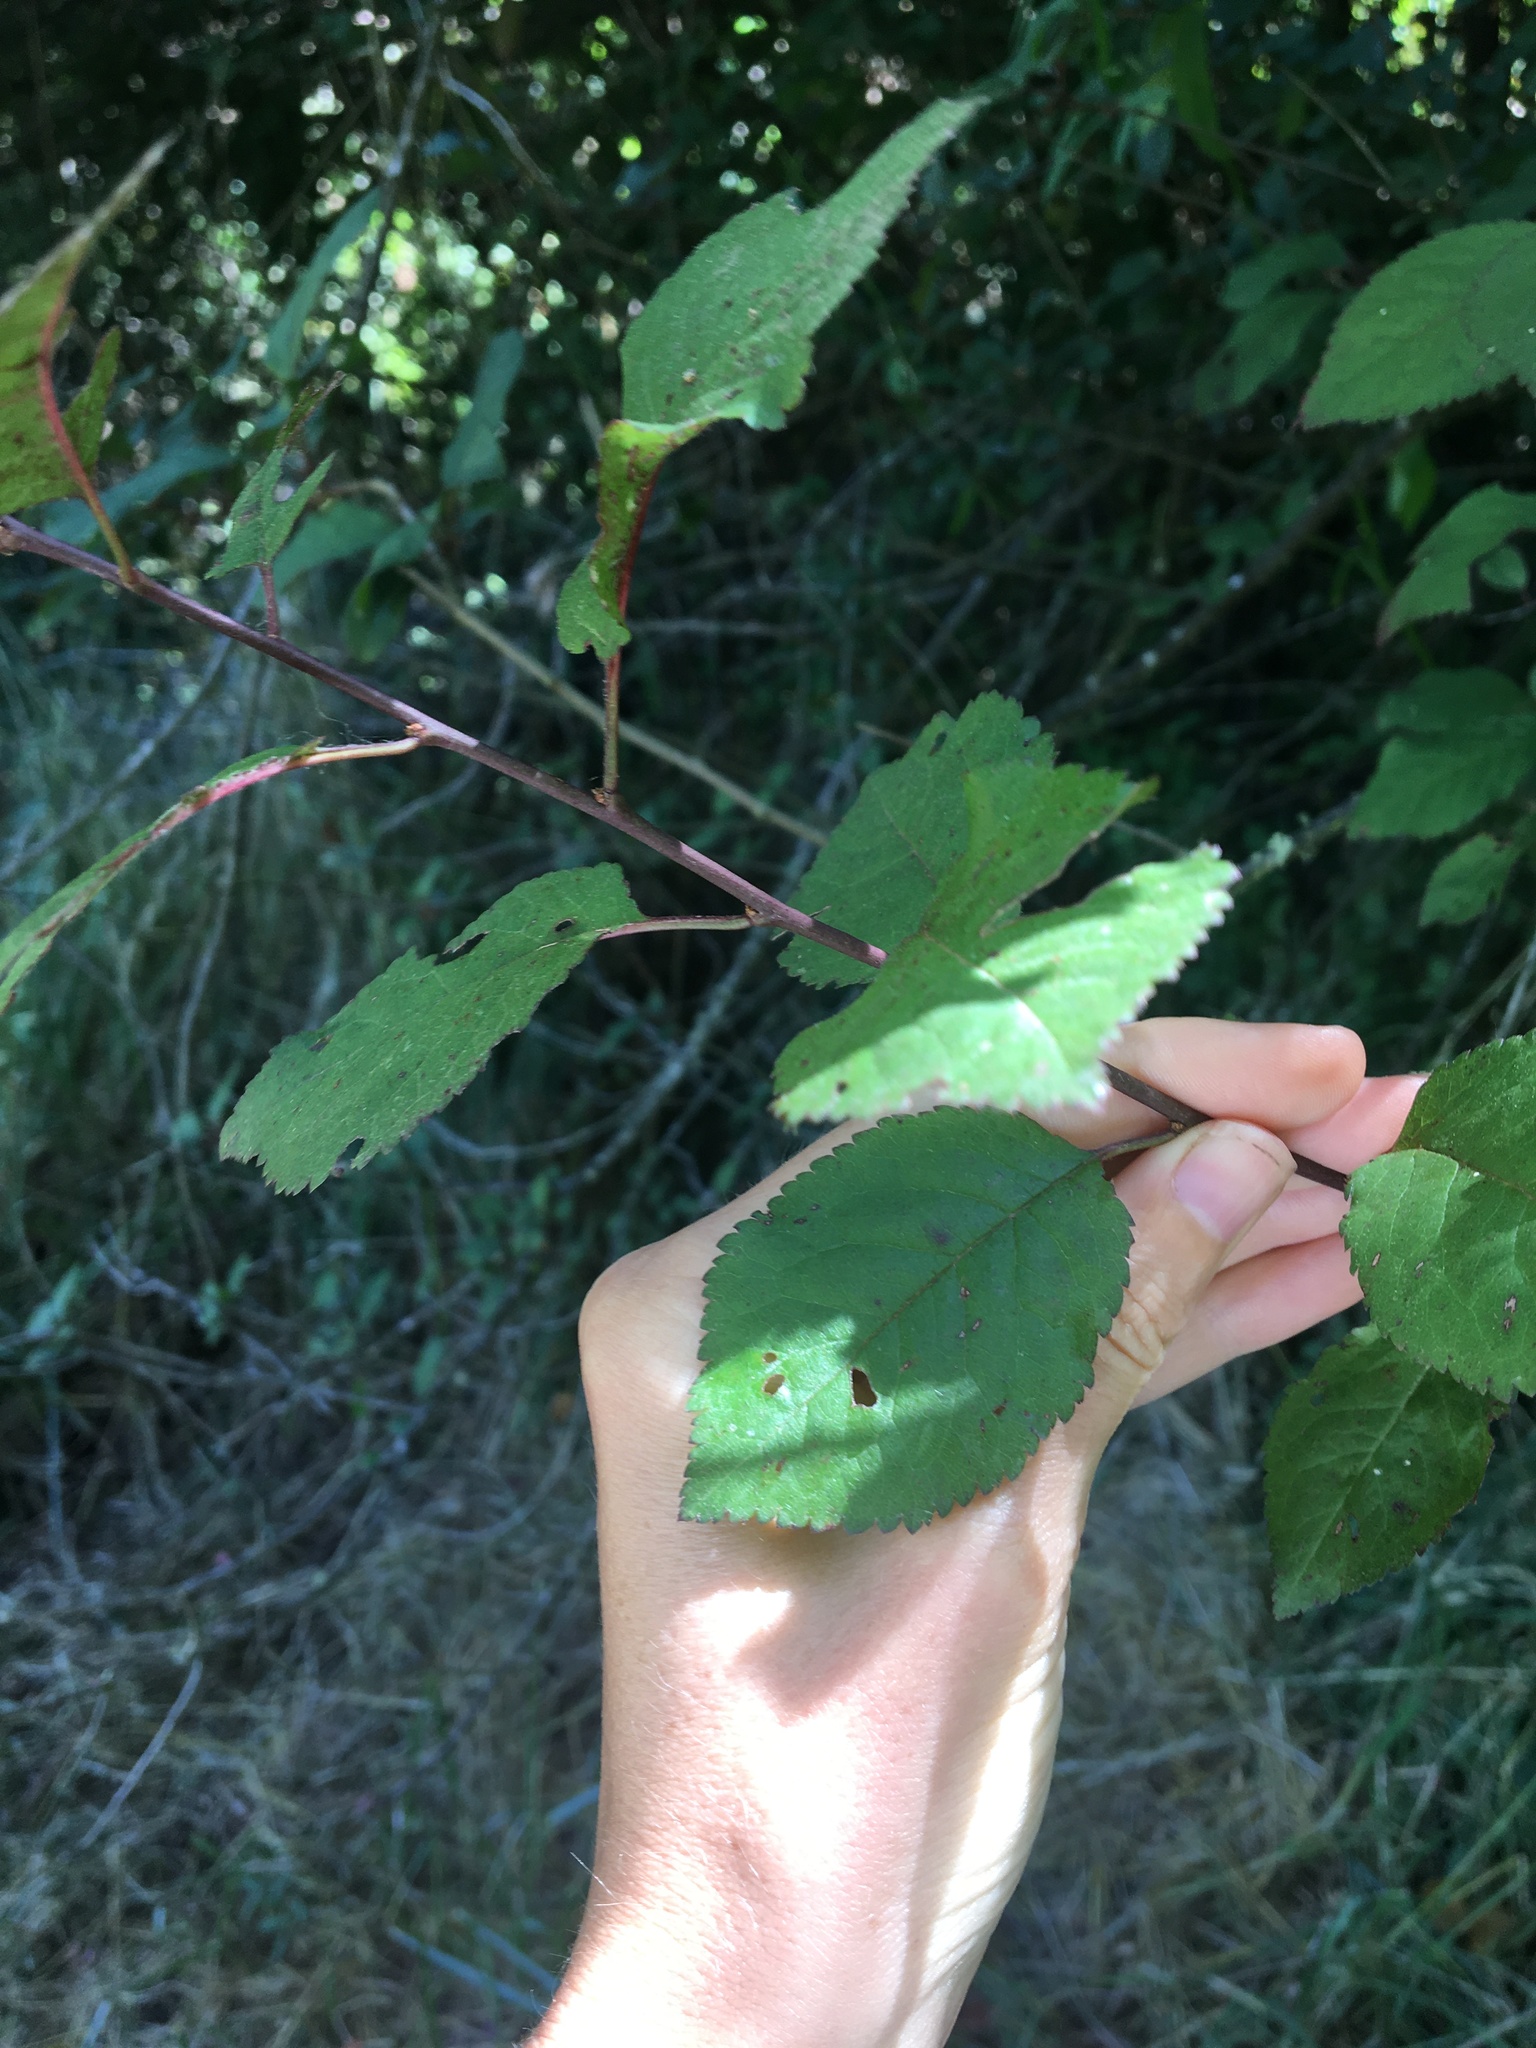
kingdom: Plantae
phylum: Tracheophyta
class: Magnoliopsida
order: Rosales
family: Rosaceae
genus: Prunus
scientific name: Prunus cerasifera
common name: Cherry plum
